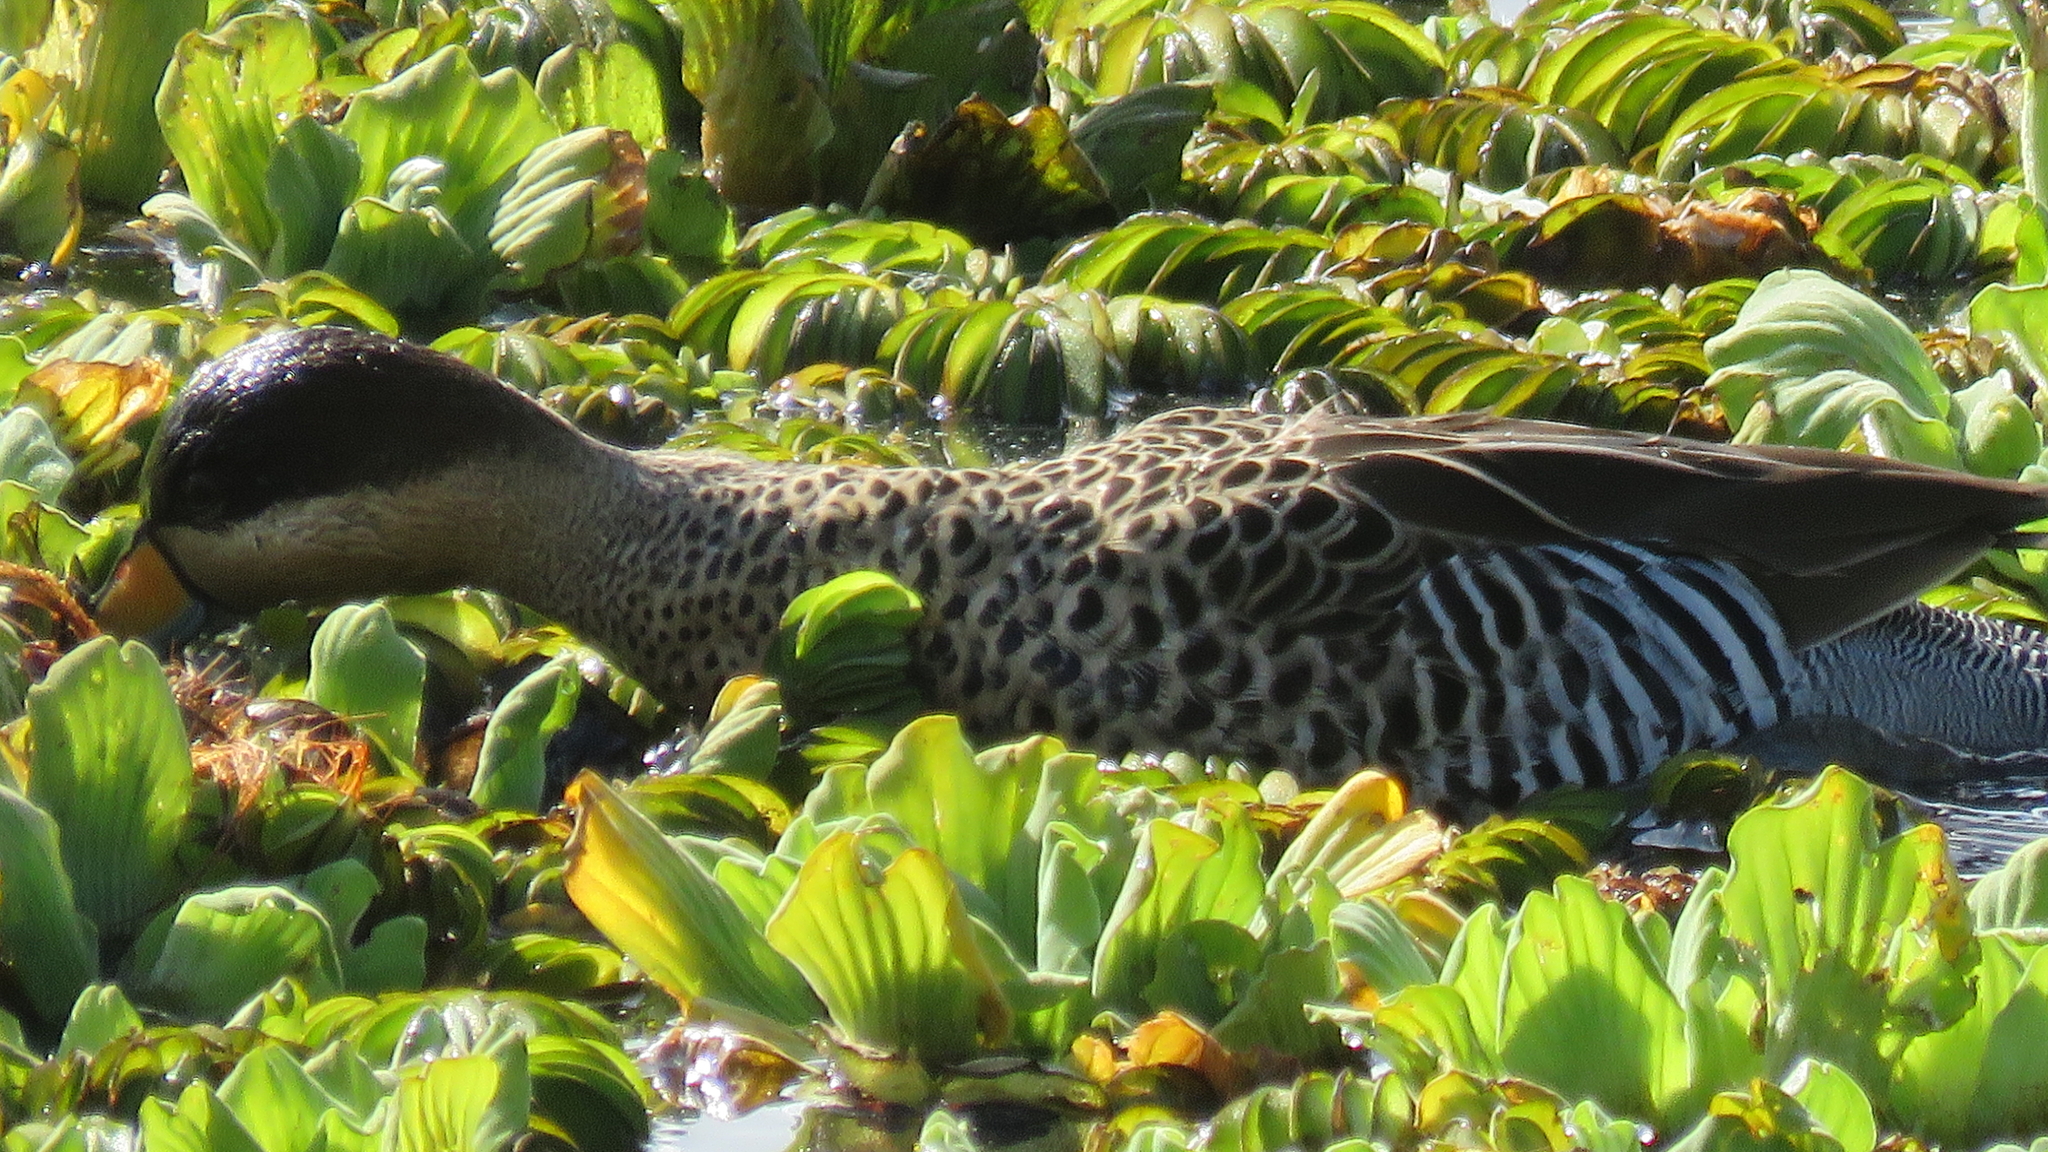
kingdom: Animalia
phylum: Chordata
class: Aves
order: Anseriformes
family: Anatidae
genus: Spatula
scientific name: Spatula versicolor
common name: Silver teal
